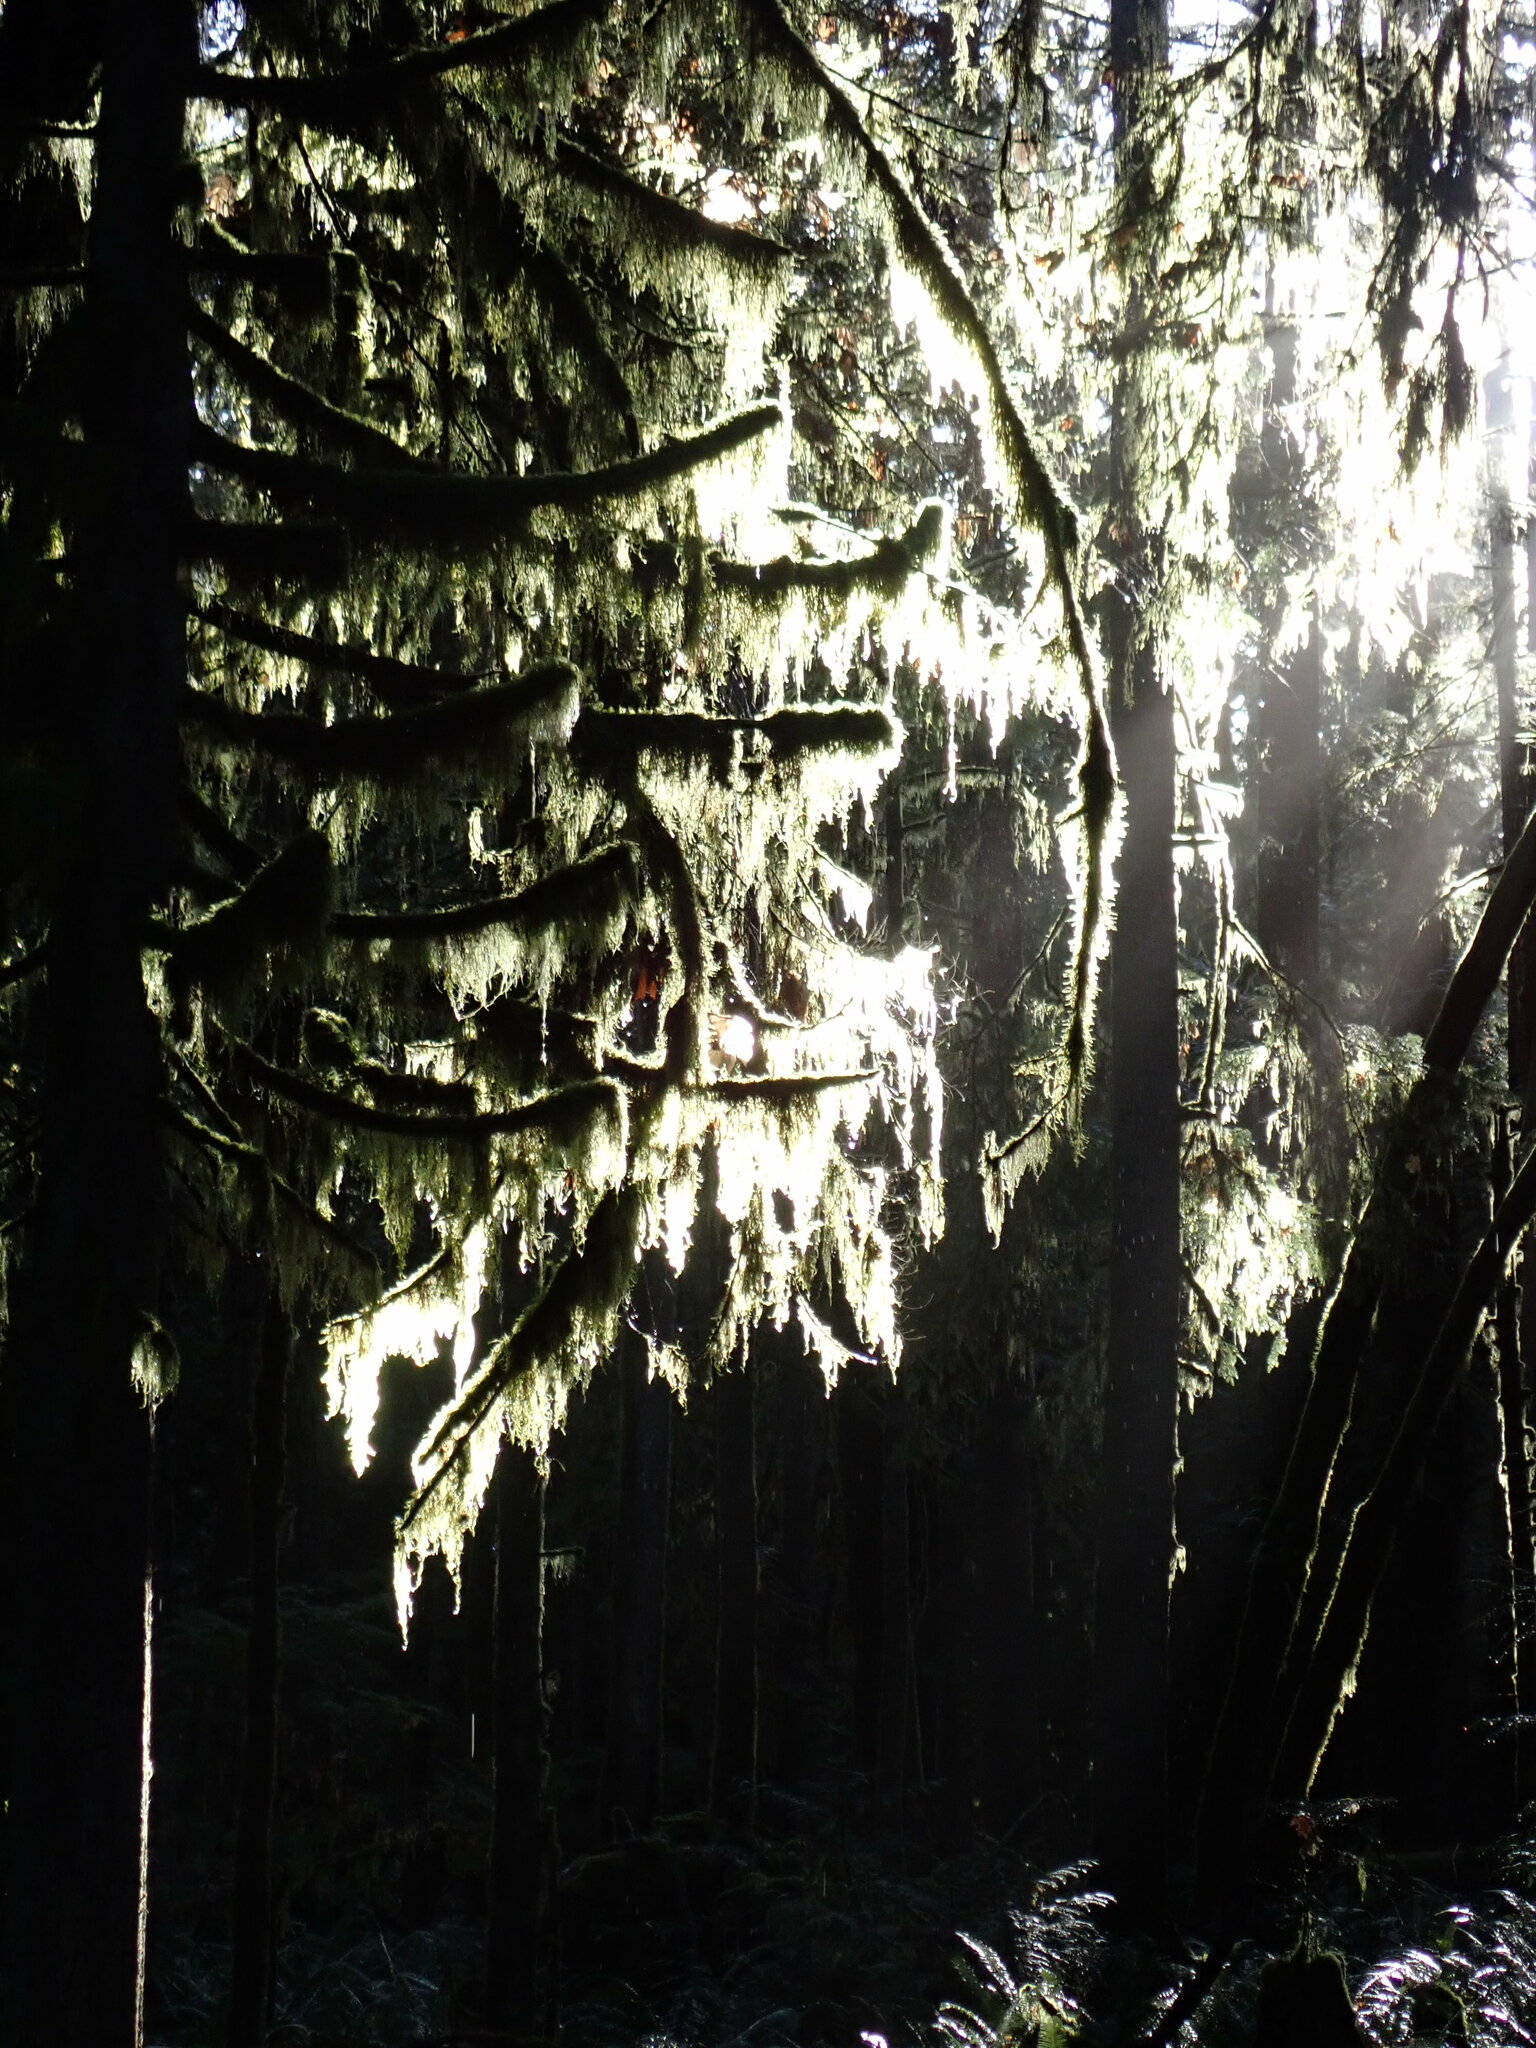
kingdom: Plantae
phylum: Bryophyta
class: Bryopsida
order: Hypnales
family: Lembophyllaceae
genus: Pseudisothecium
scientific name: Pseudisothecium stoloniferum
